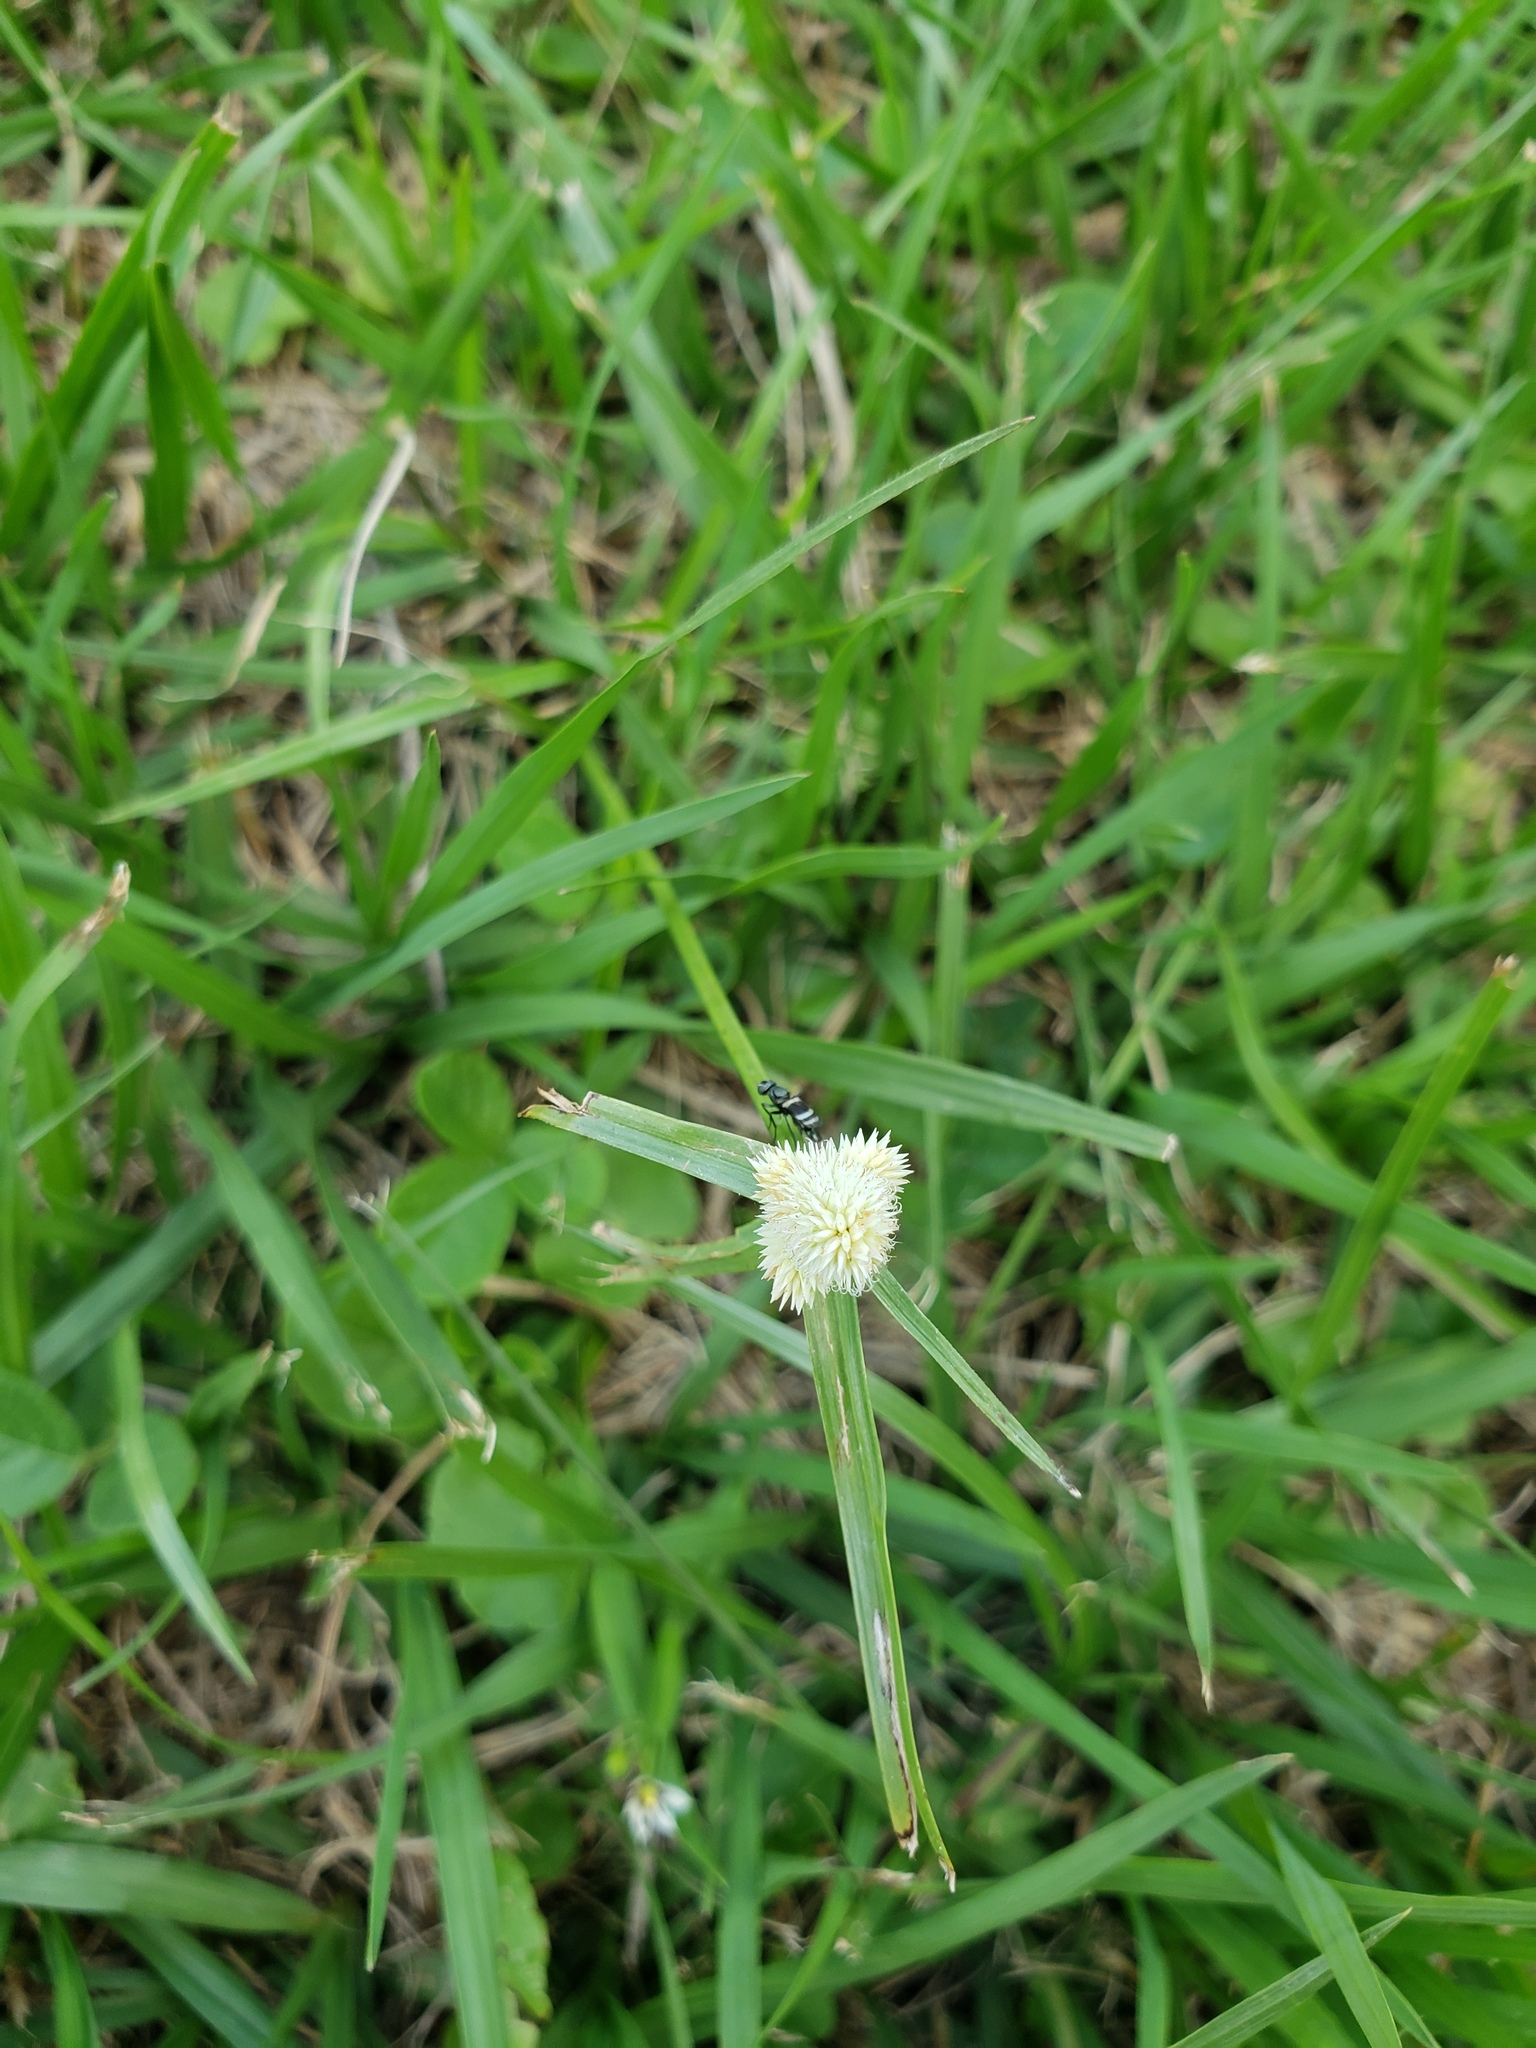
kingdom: Plantae
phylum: Tracheophyta
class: Liliopsida
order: Poales
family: Cyperaceae
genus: Cyperus
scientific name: Cyperus sesquiflorus
